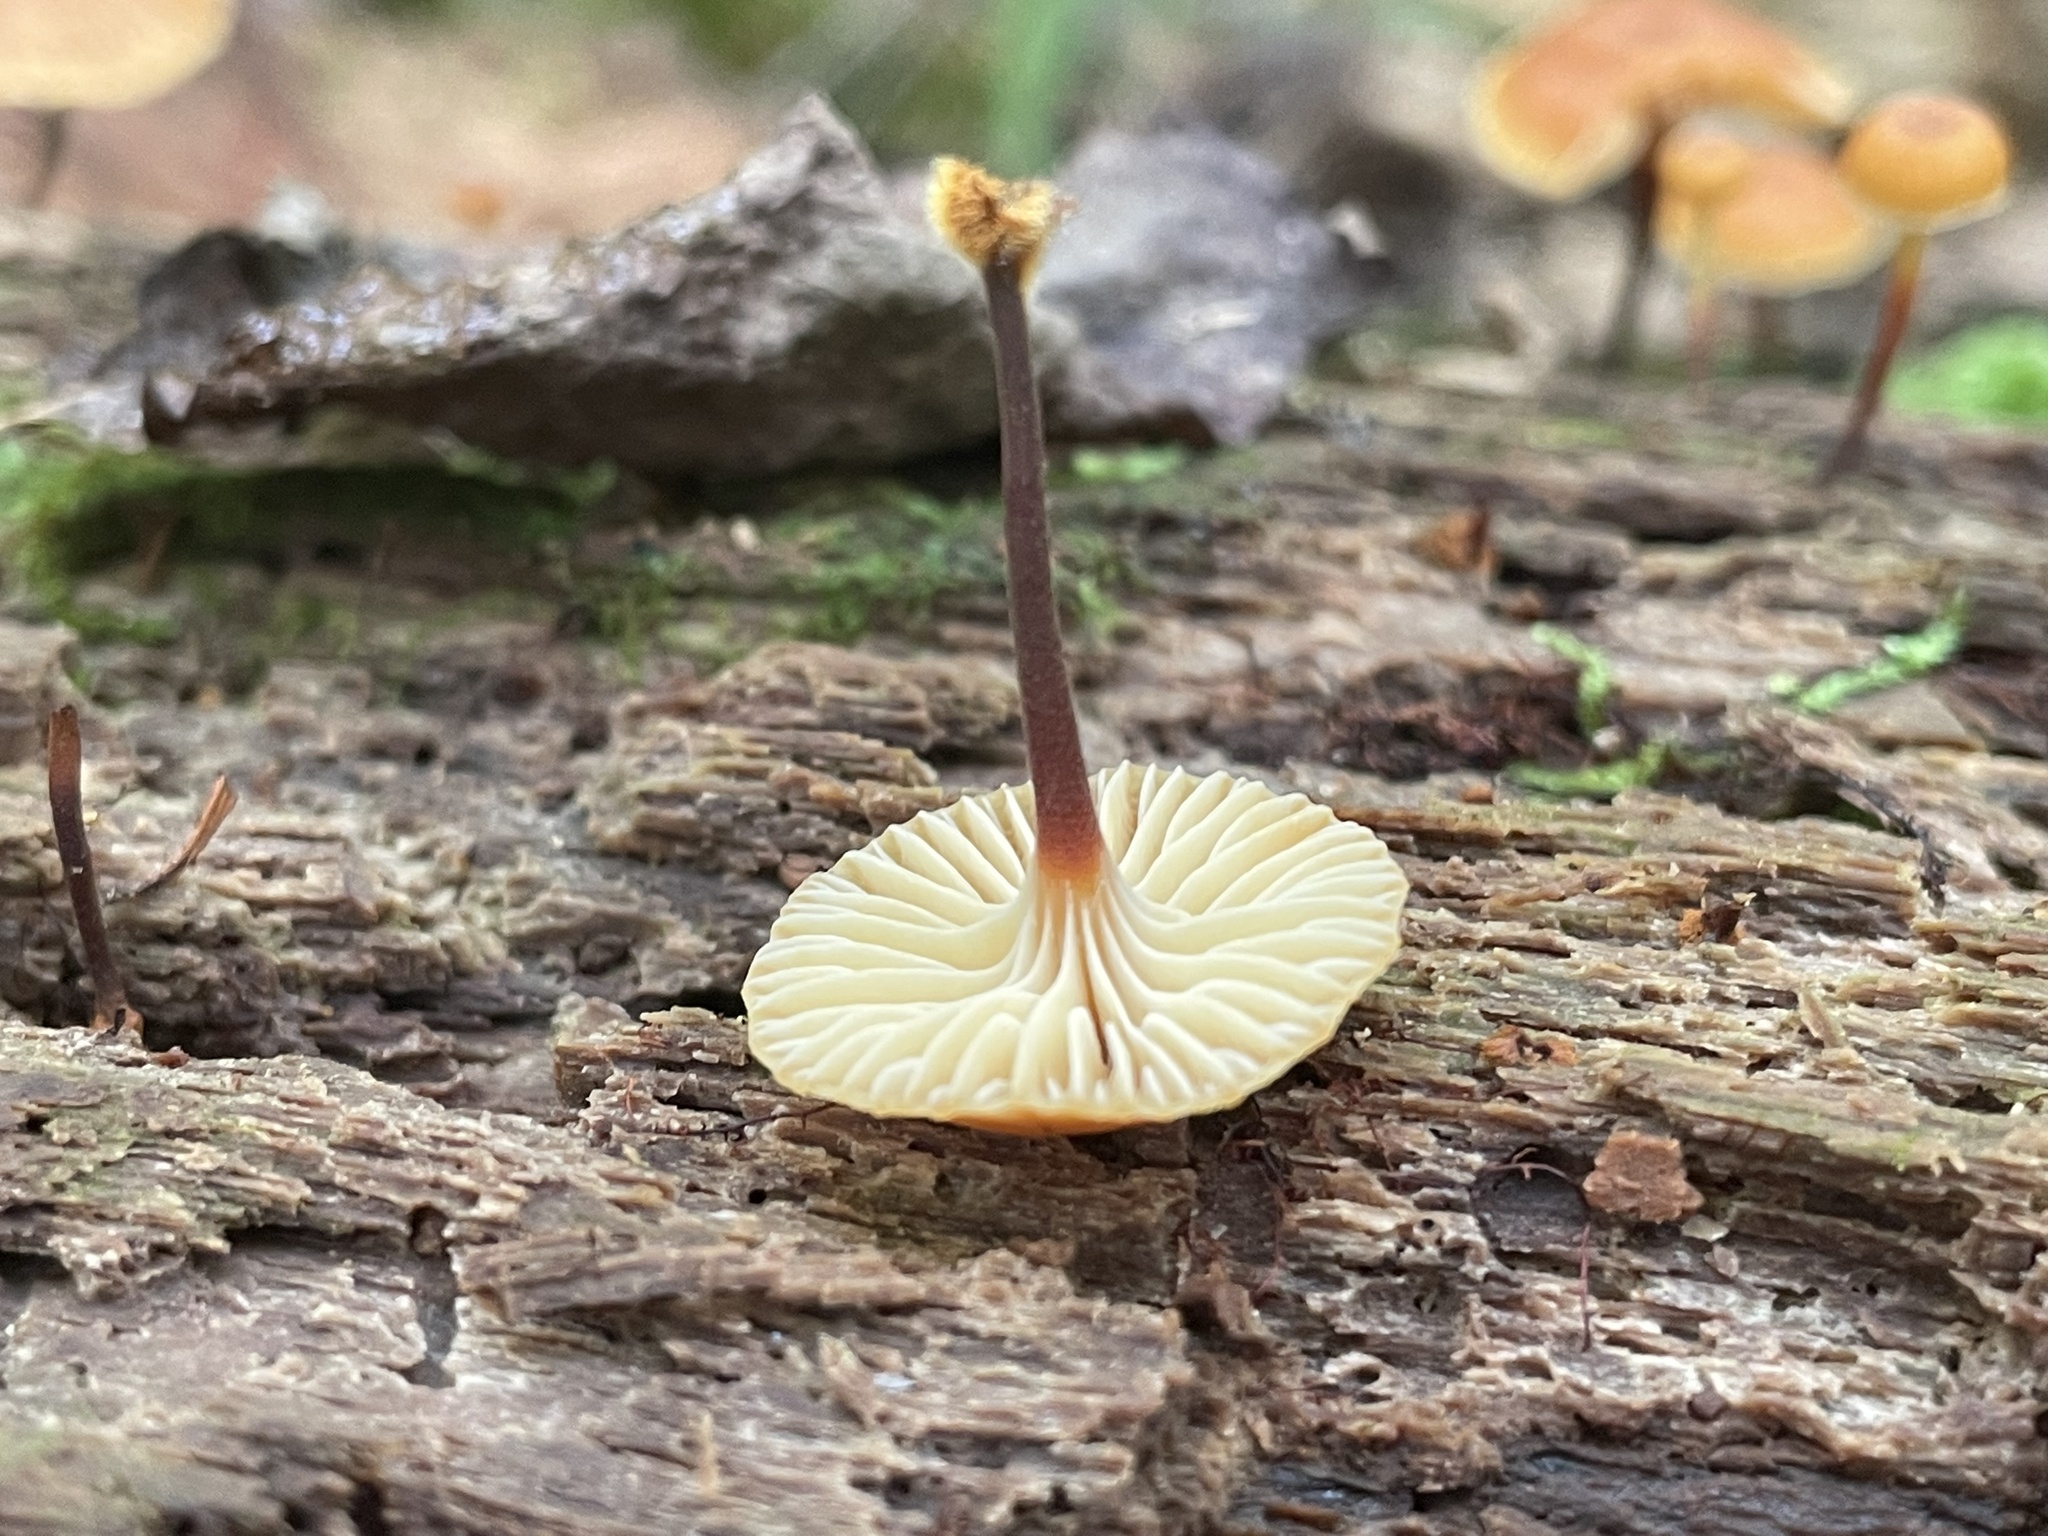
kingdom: Fungi
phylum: Basidiomycota
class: Agaricomycetes
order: Agaricales
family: Mycenaceae
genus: Xeromphalina
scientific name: Xeromphalina campanella
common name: Pinewood gingertail
